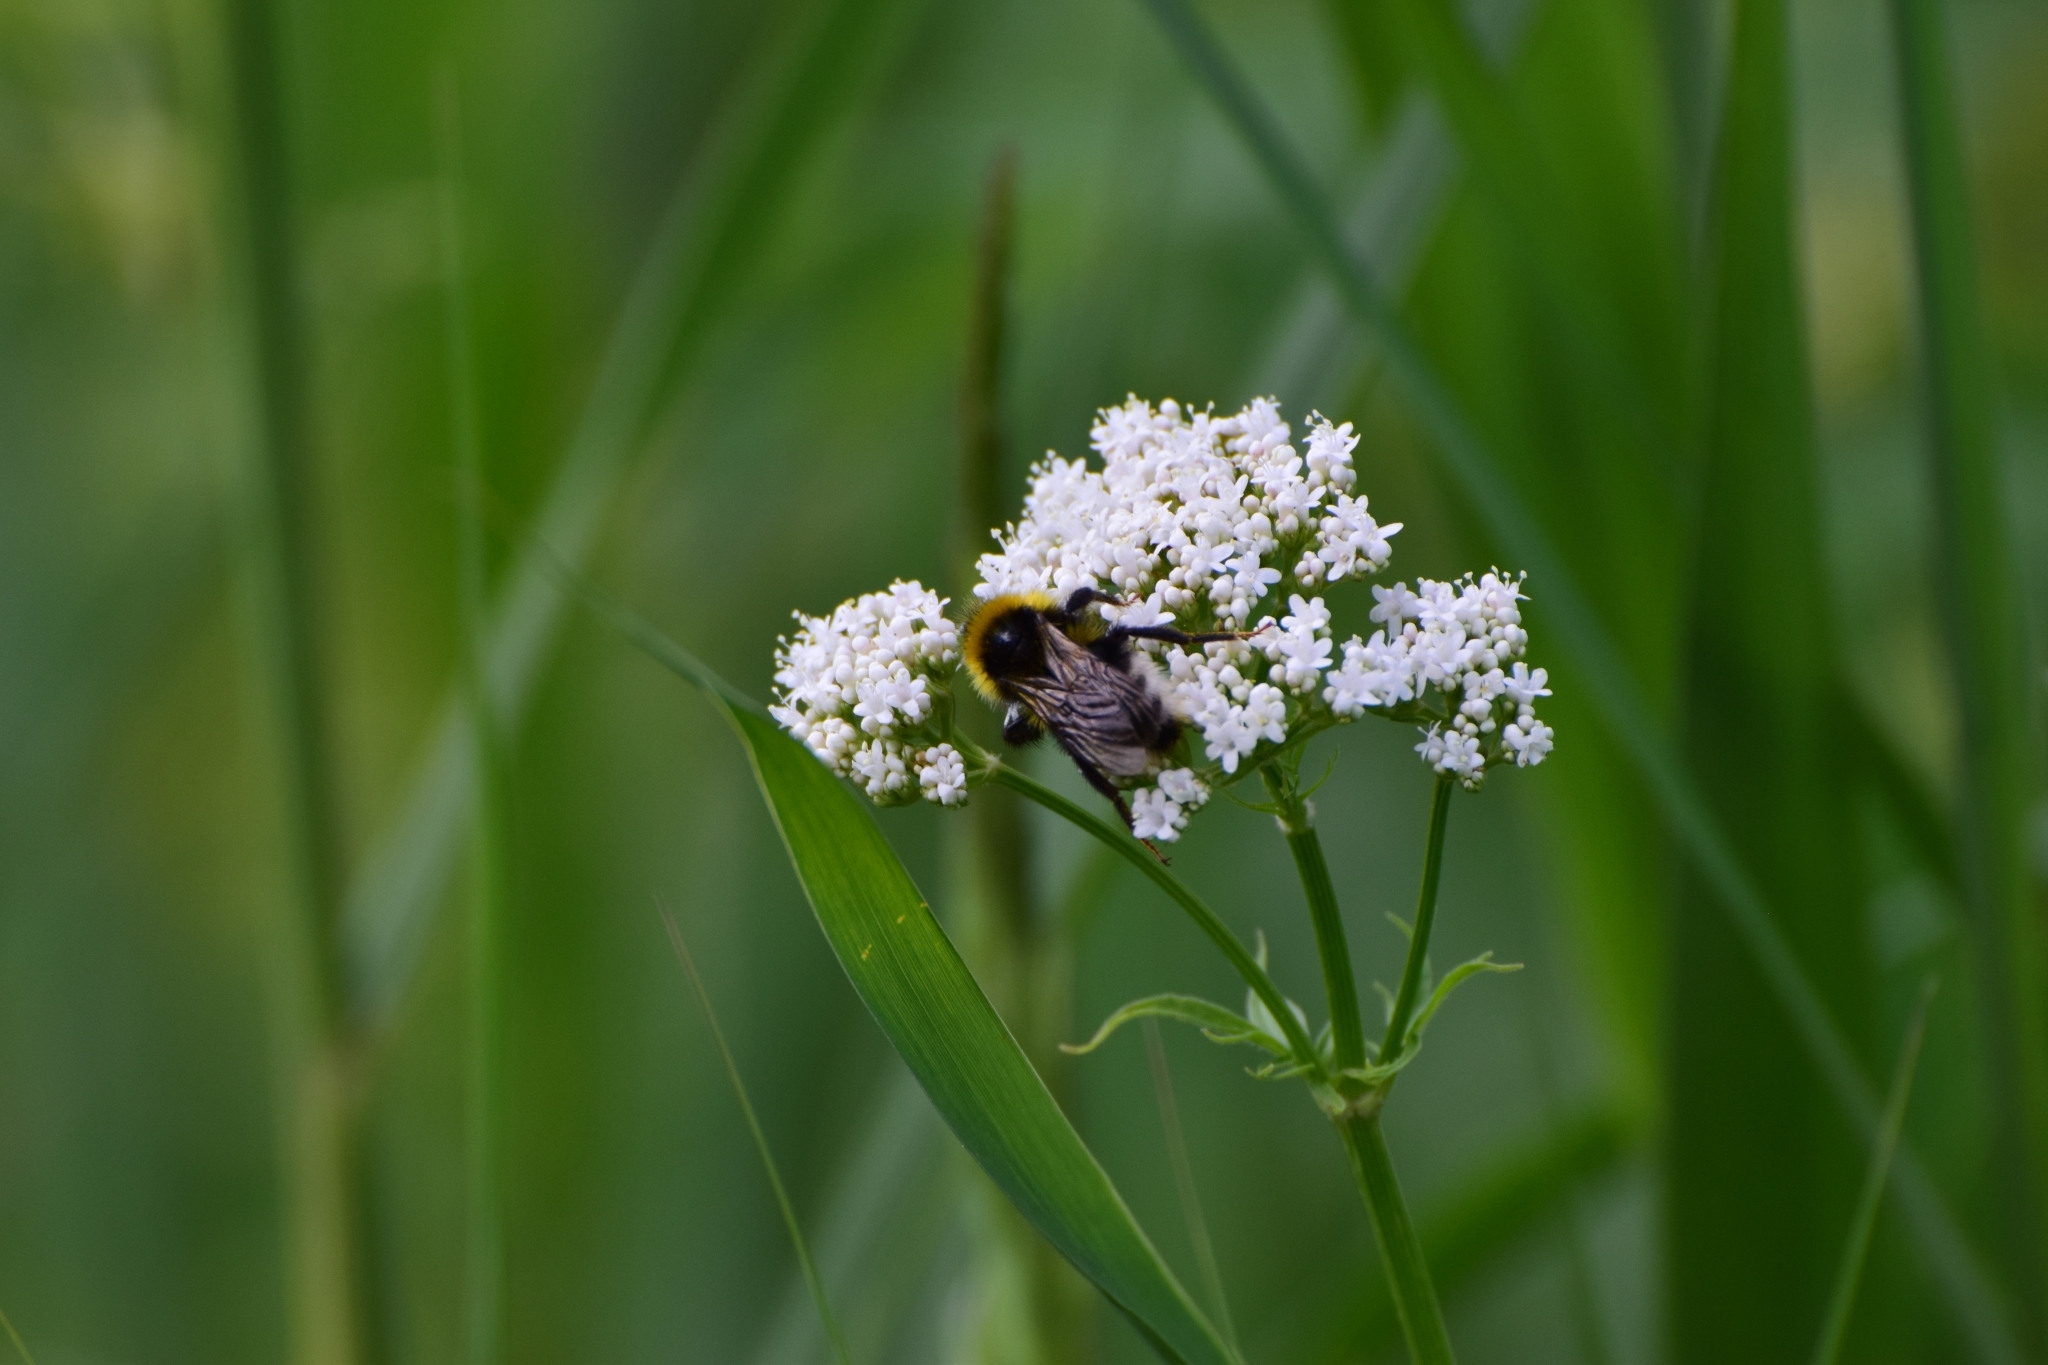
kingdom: Plantae
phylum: Tracheophyta
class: Magnoliopsida
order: Dipsacales
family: Caprifoliaceae
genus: Valeriana
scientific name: Valeriana officinalis
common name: Common valerian
